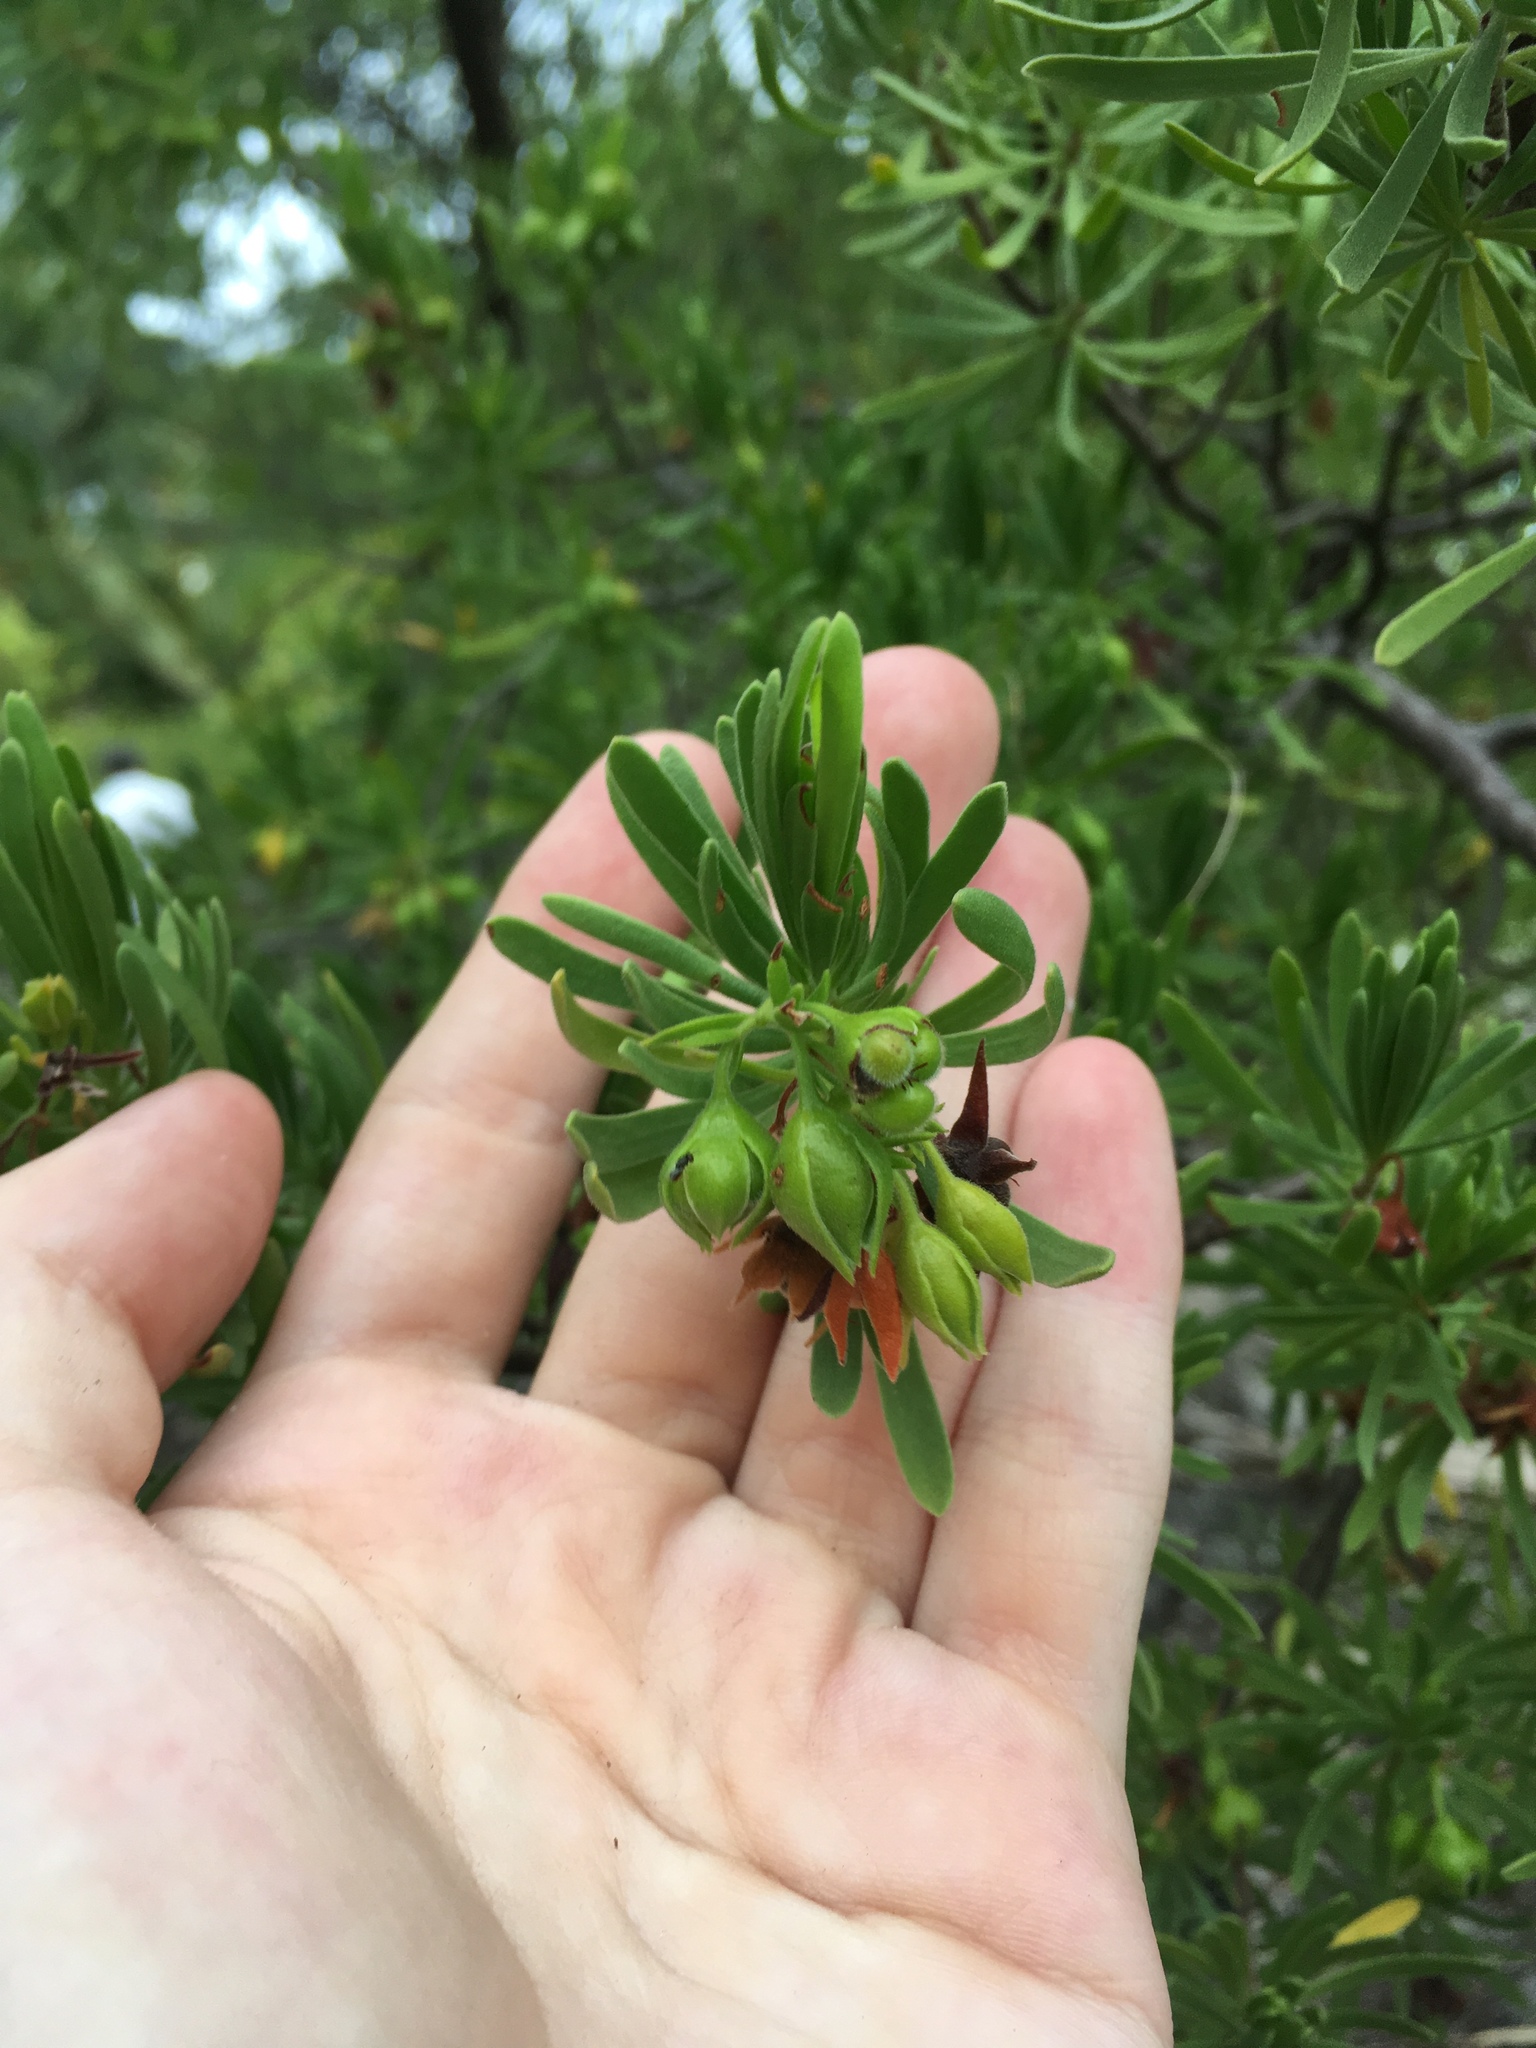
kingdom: Plantae
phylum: Tracheophyta
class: Magnoliopsida
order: Fabales
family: Surianaceae
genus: Suriana
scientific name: Suriana maritima
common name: Bay-cedar
